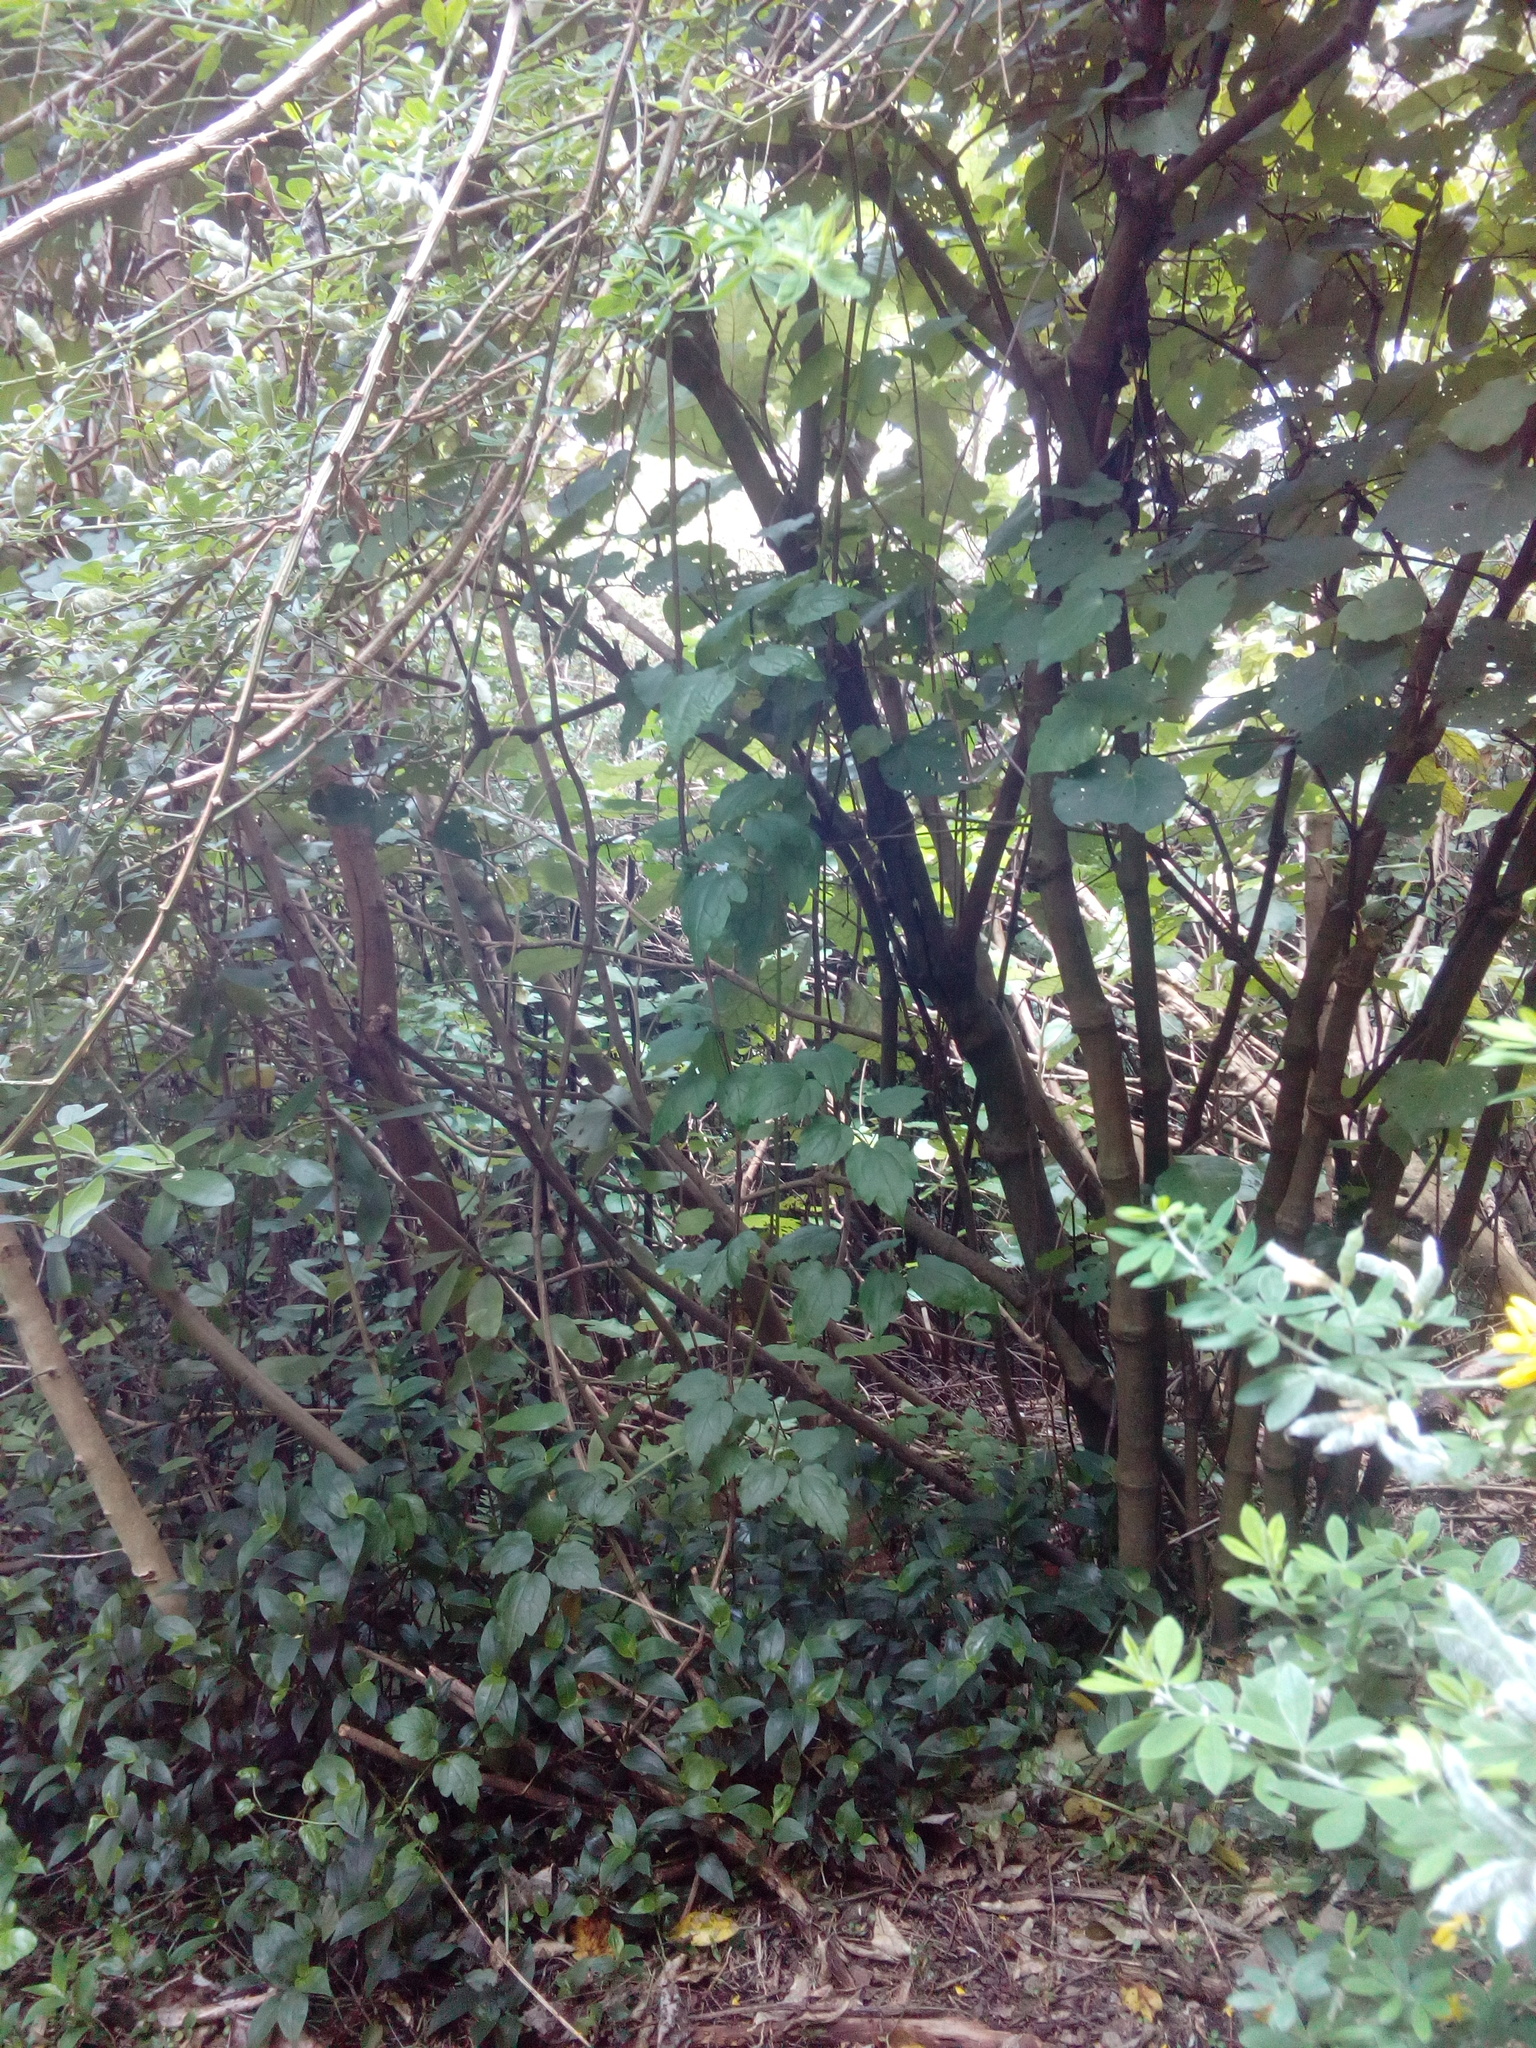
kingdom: Plantae
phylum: Tracheophyta
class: Magnoliopsida
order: Ranunculales
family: Ranunculaceae
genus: Clematis
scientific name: Clematis vitalba
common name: Evergreen clematis
